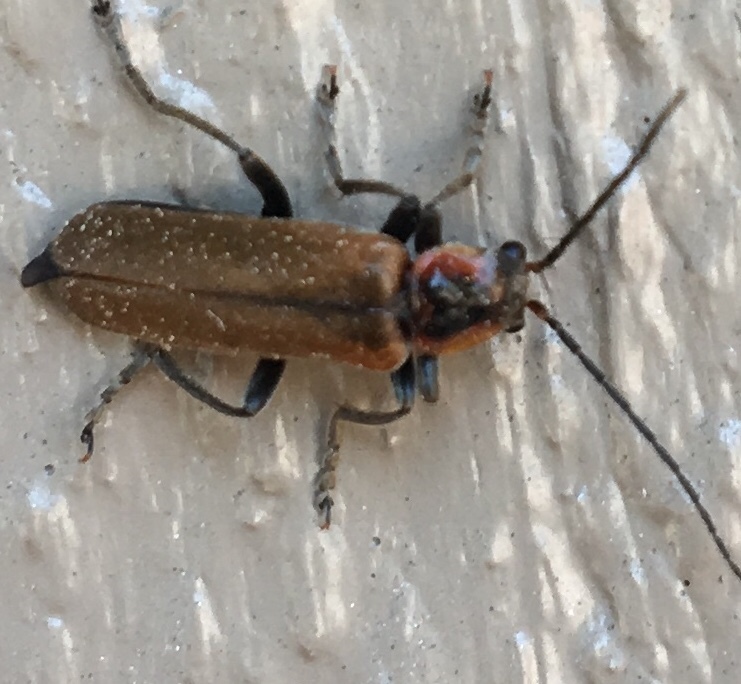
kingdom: Animalia
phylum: Arthropoda
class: Insecta
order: Coleoptera
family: Cantharidae
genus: Cantharis
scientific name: Cantharis quadripunctata
